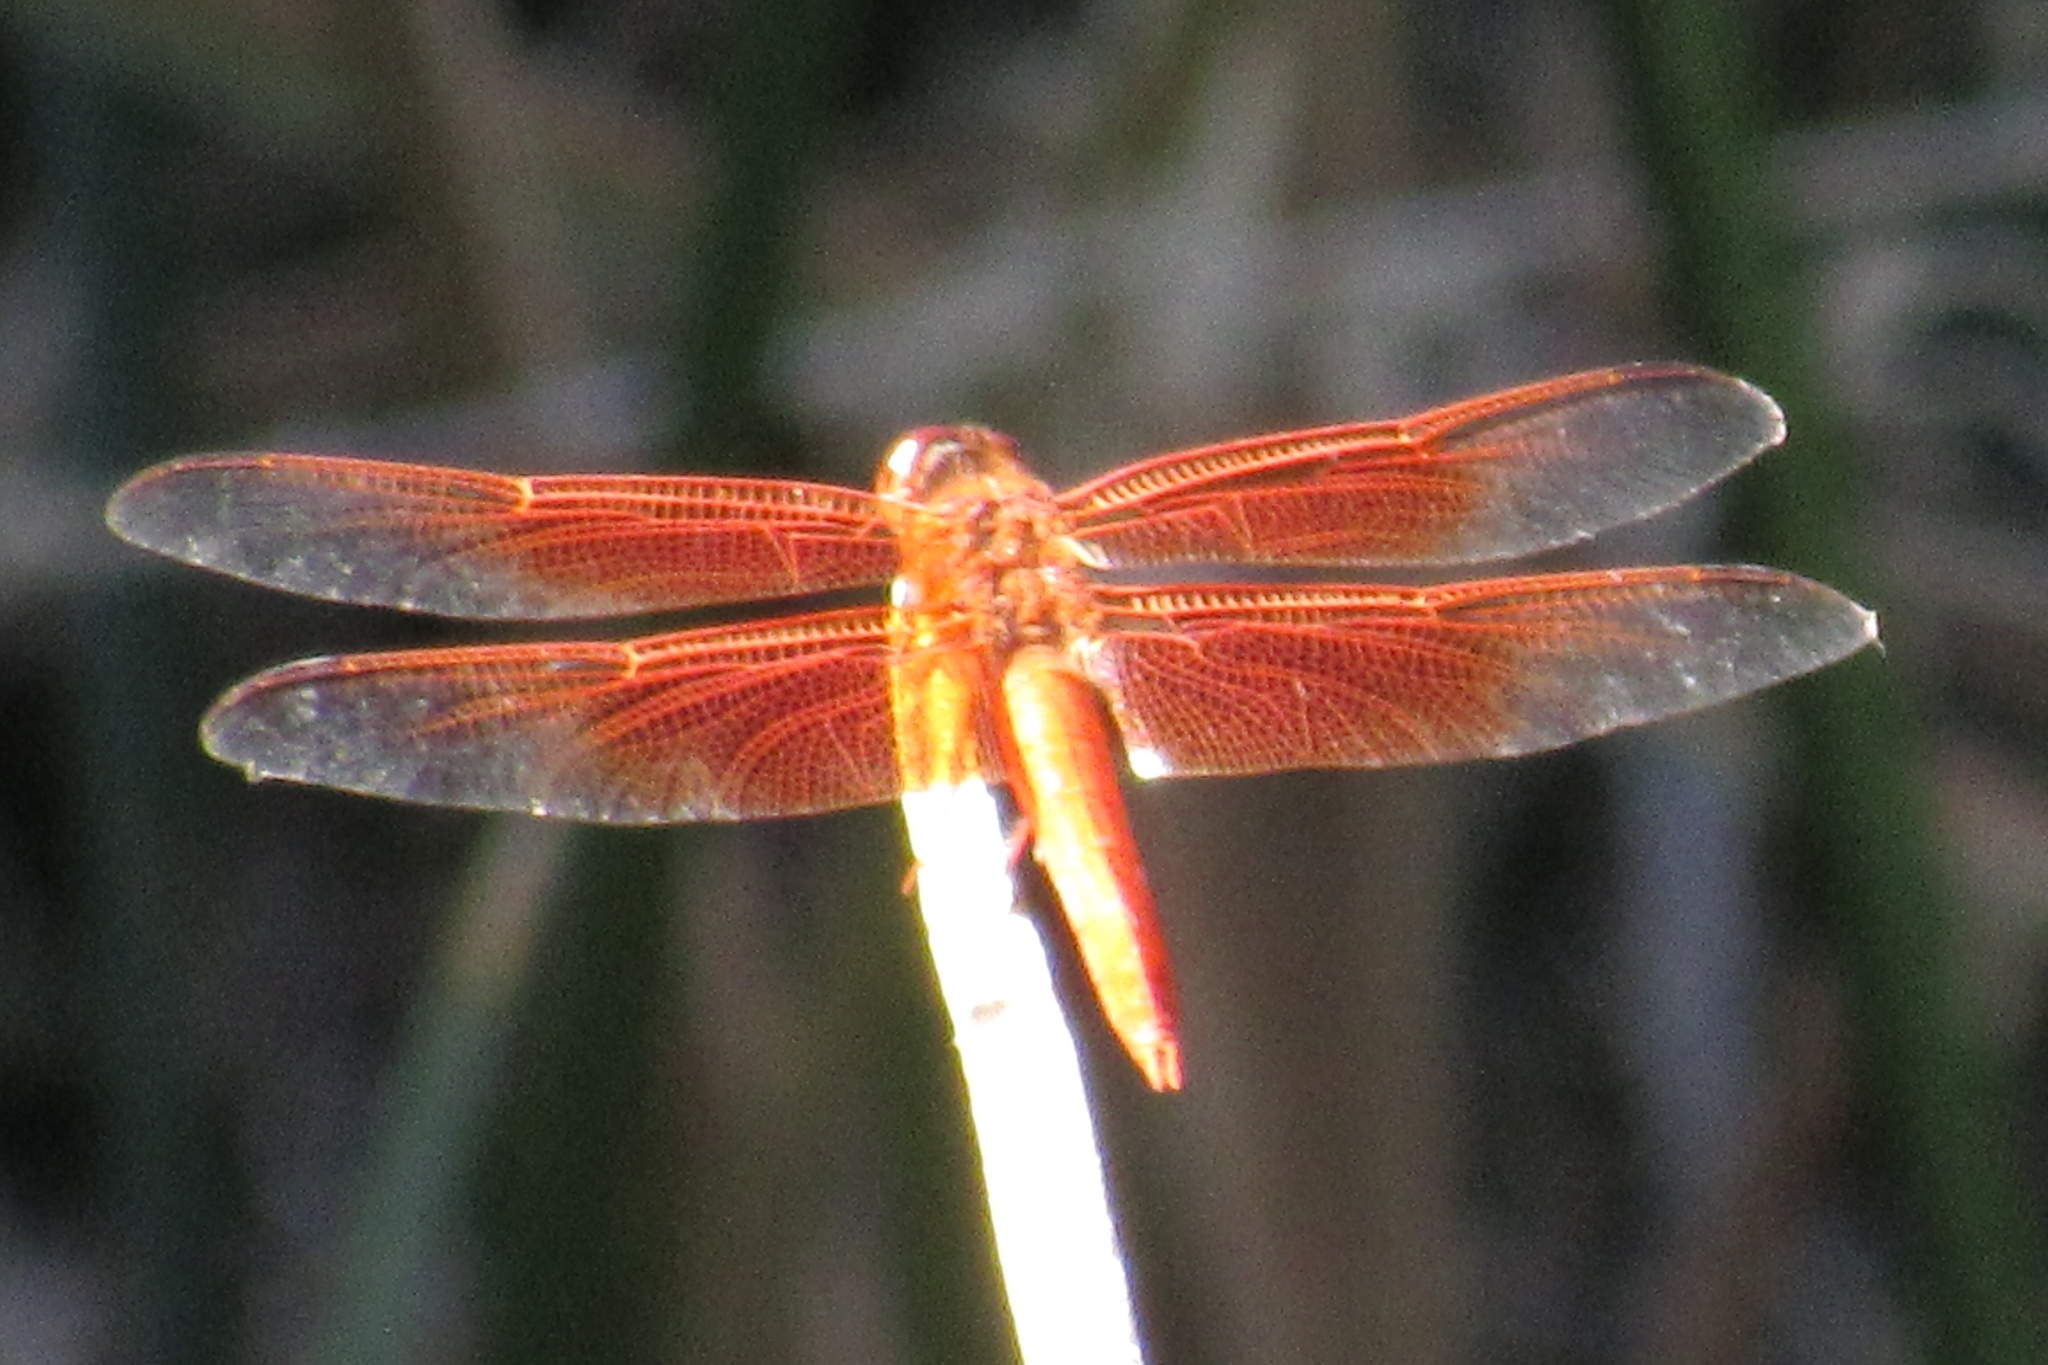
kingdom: Animalia
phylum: Arthropoda
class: Insecta
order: Odonata
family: Libellulidae
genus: Libellula
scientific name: Libellula saturata
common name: Flame skimmer
